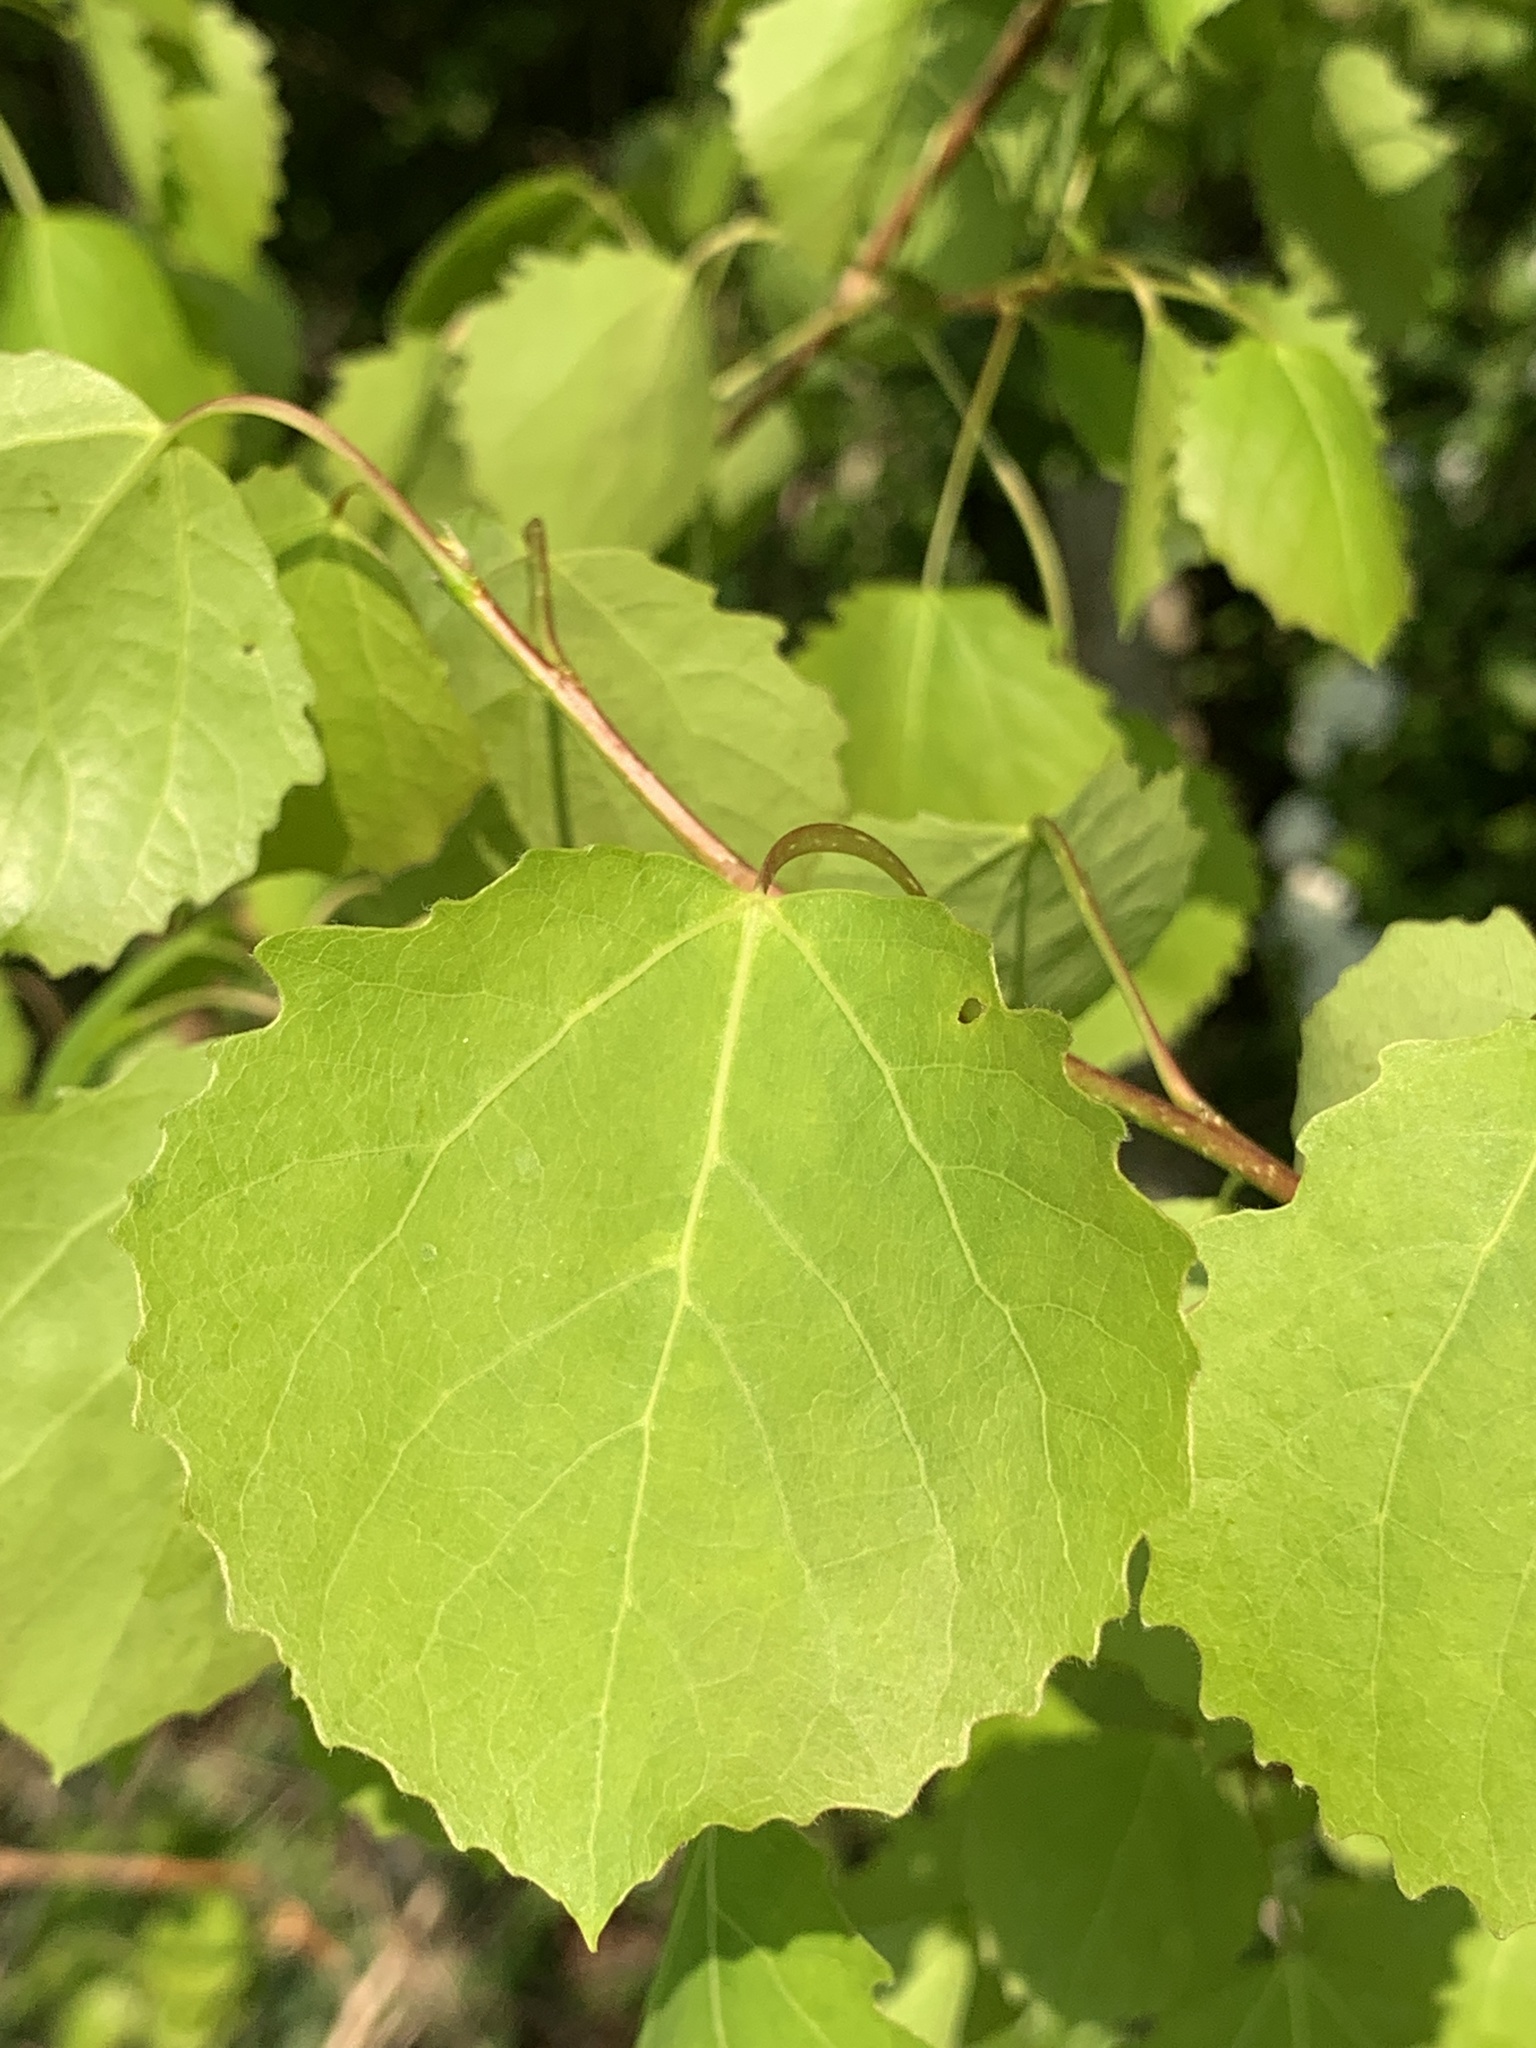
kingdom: Plantae
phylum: Tracheophyta
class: Magnoliopsida
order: Malpighiales
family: Salicaceae
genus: Populus
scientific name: Populus tremula
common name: European aspen
